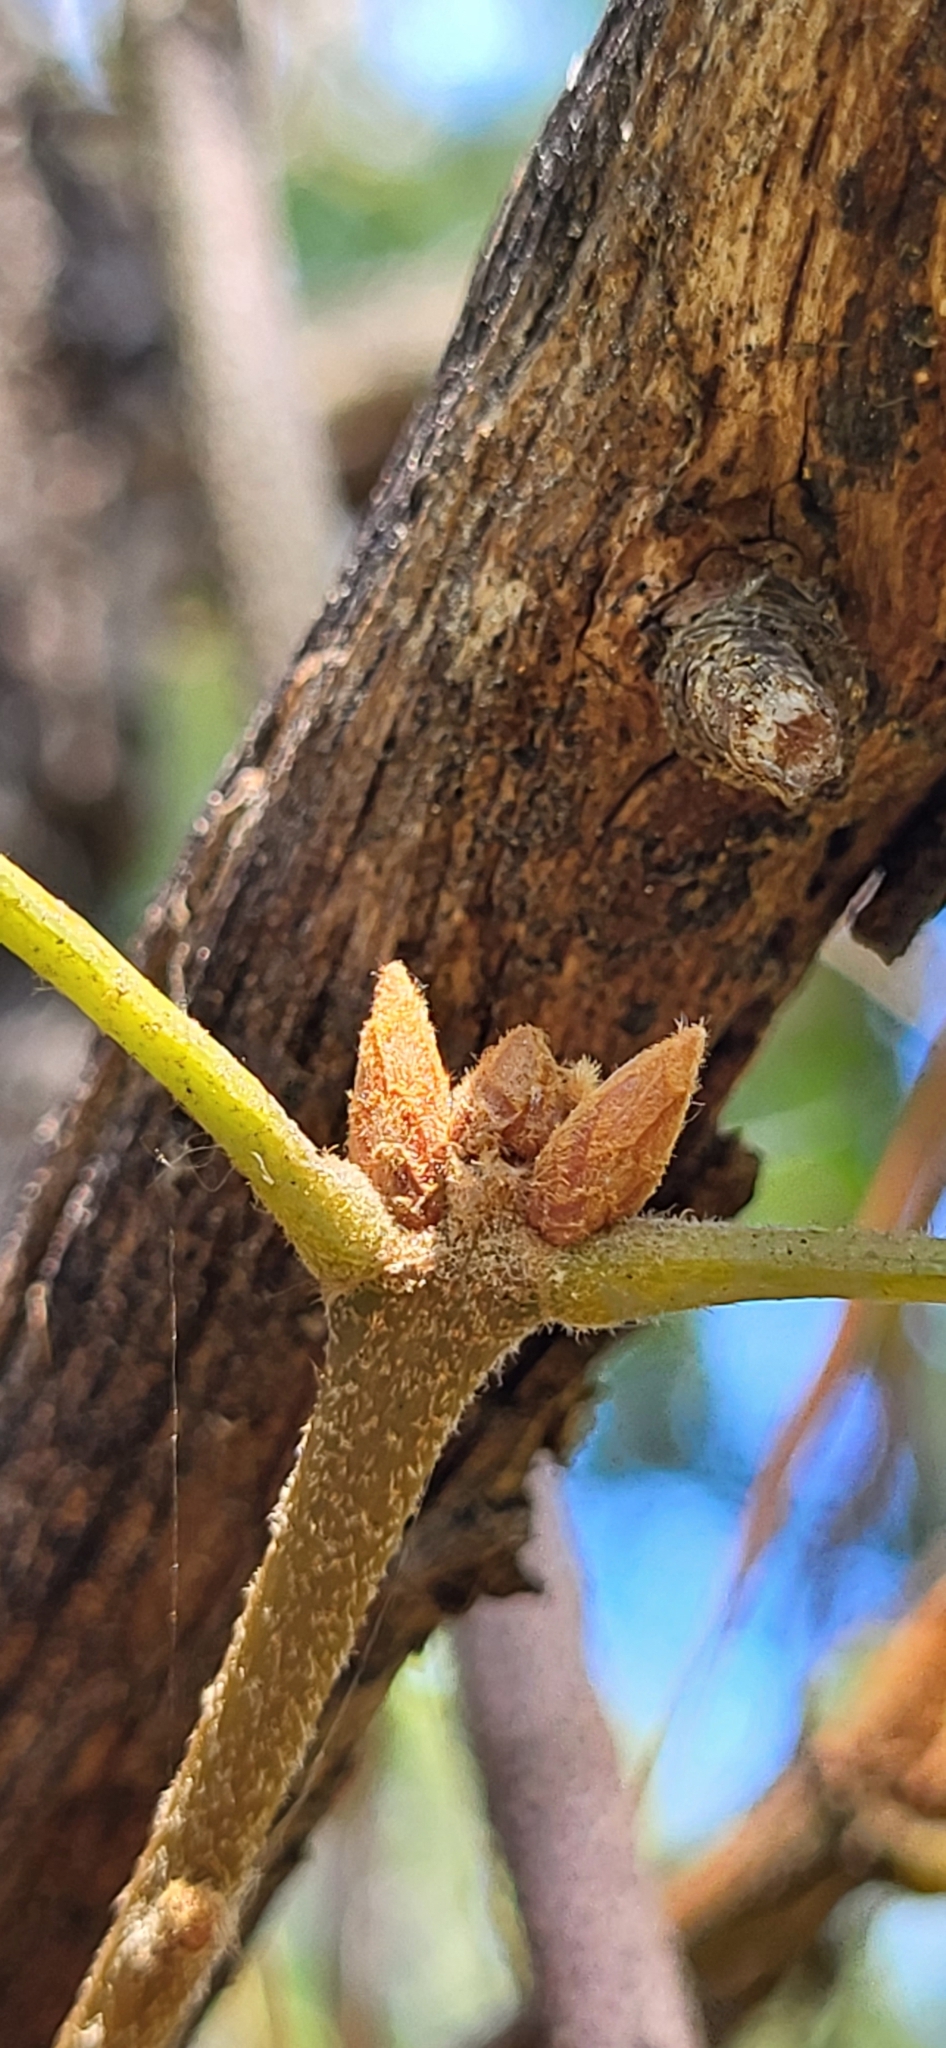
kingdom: Plantae
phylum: Tracheophyta
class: Magnoliopsida
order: Fagales
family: Fagaceae
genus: Quercus
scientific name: Quercus marilandica
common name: Blackjack oak
